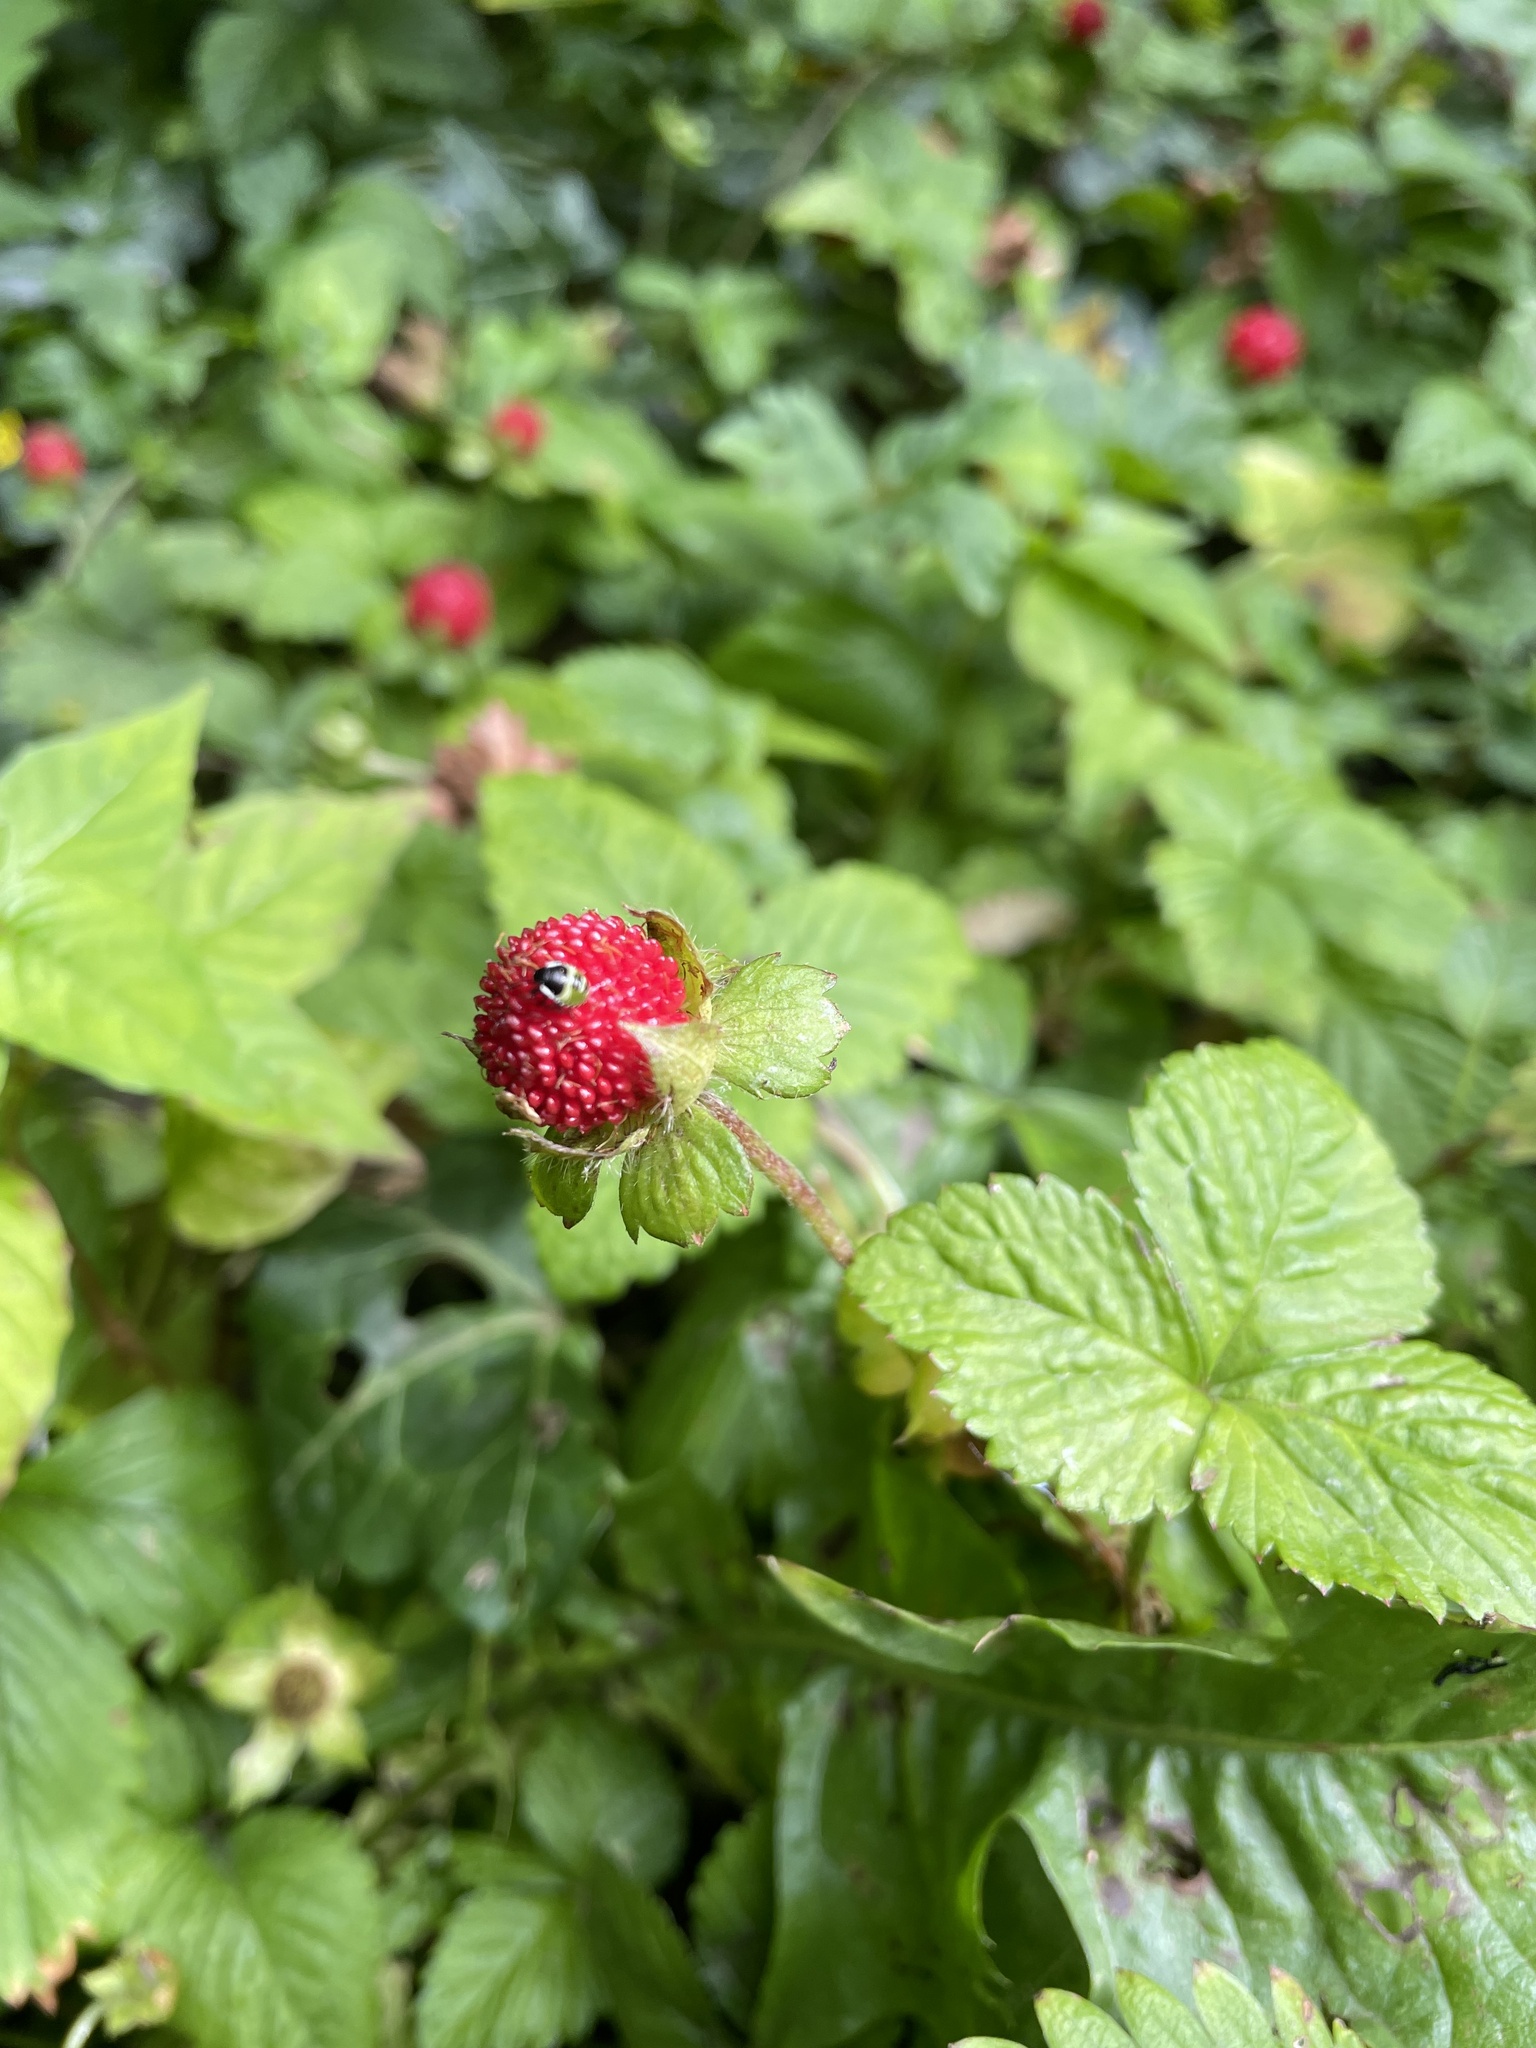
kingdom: Plantae
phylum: Tracheophyta
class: Magnoliopsida
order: Rosales
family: Rosaceae
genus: Potentilla
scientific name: Potentilla indica
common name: Yellow-flowered strawberry
